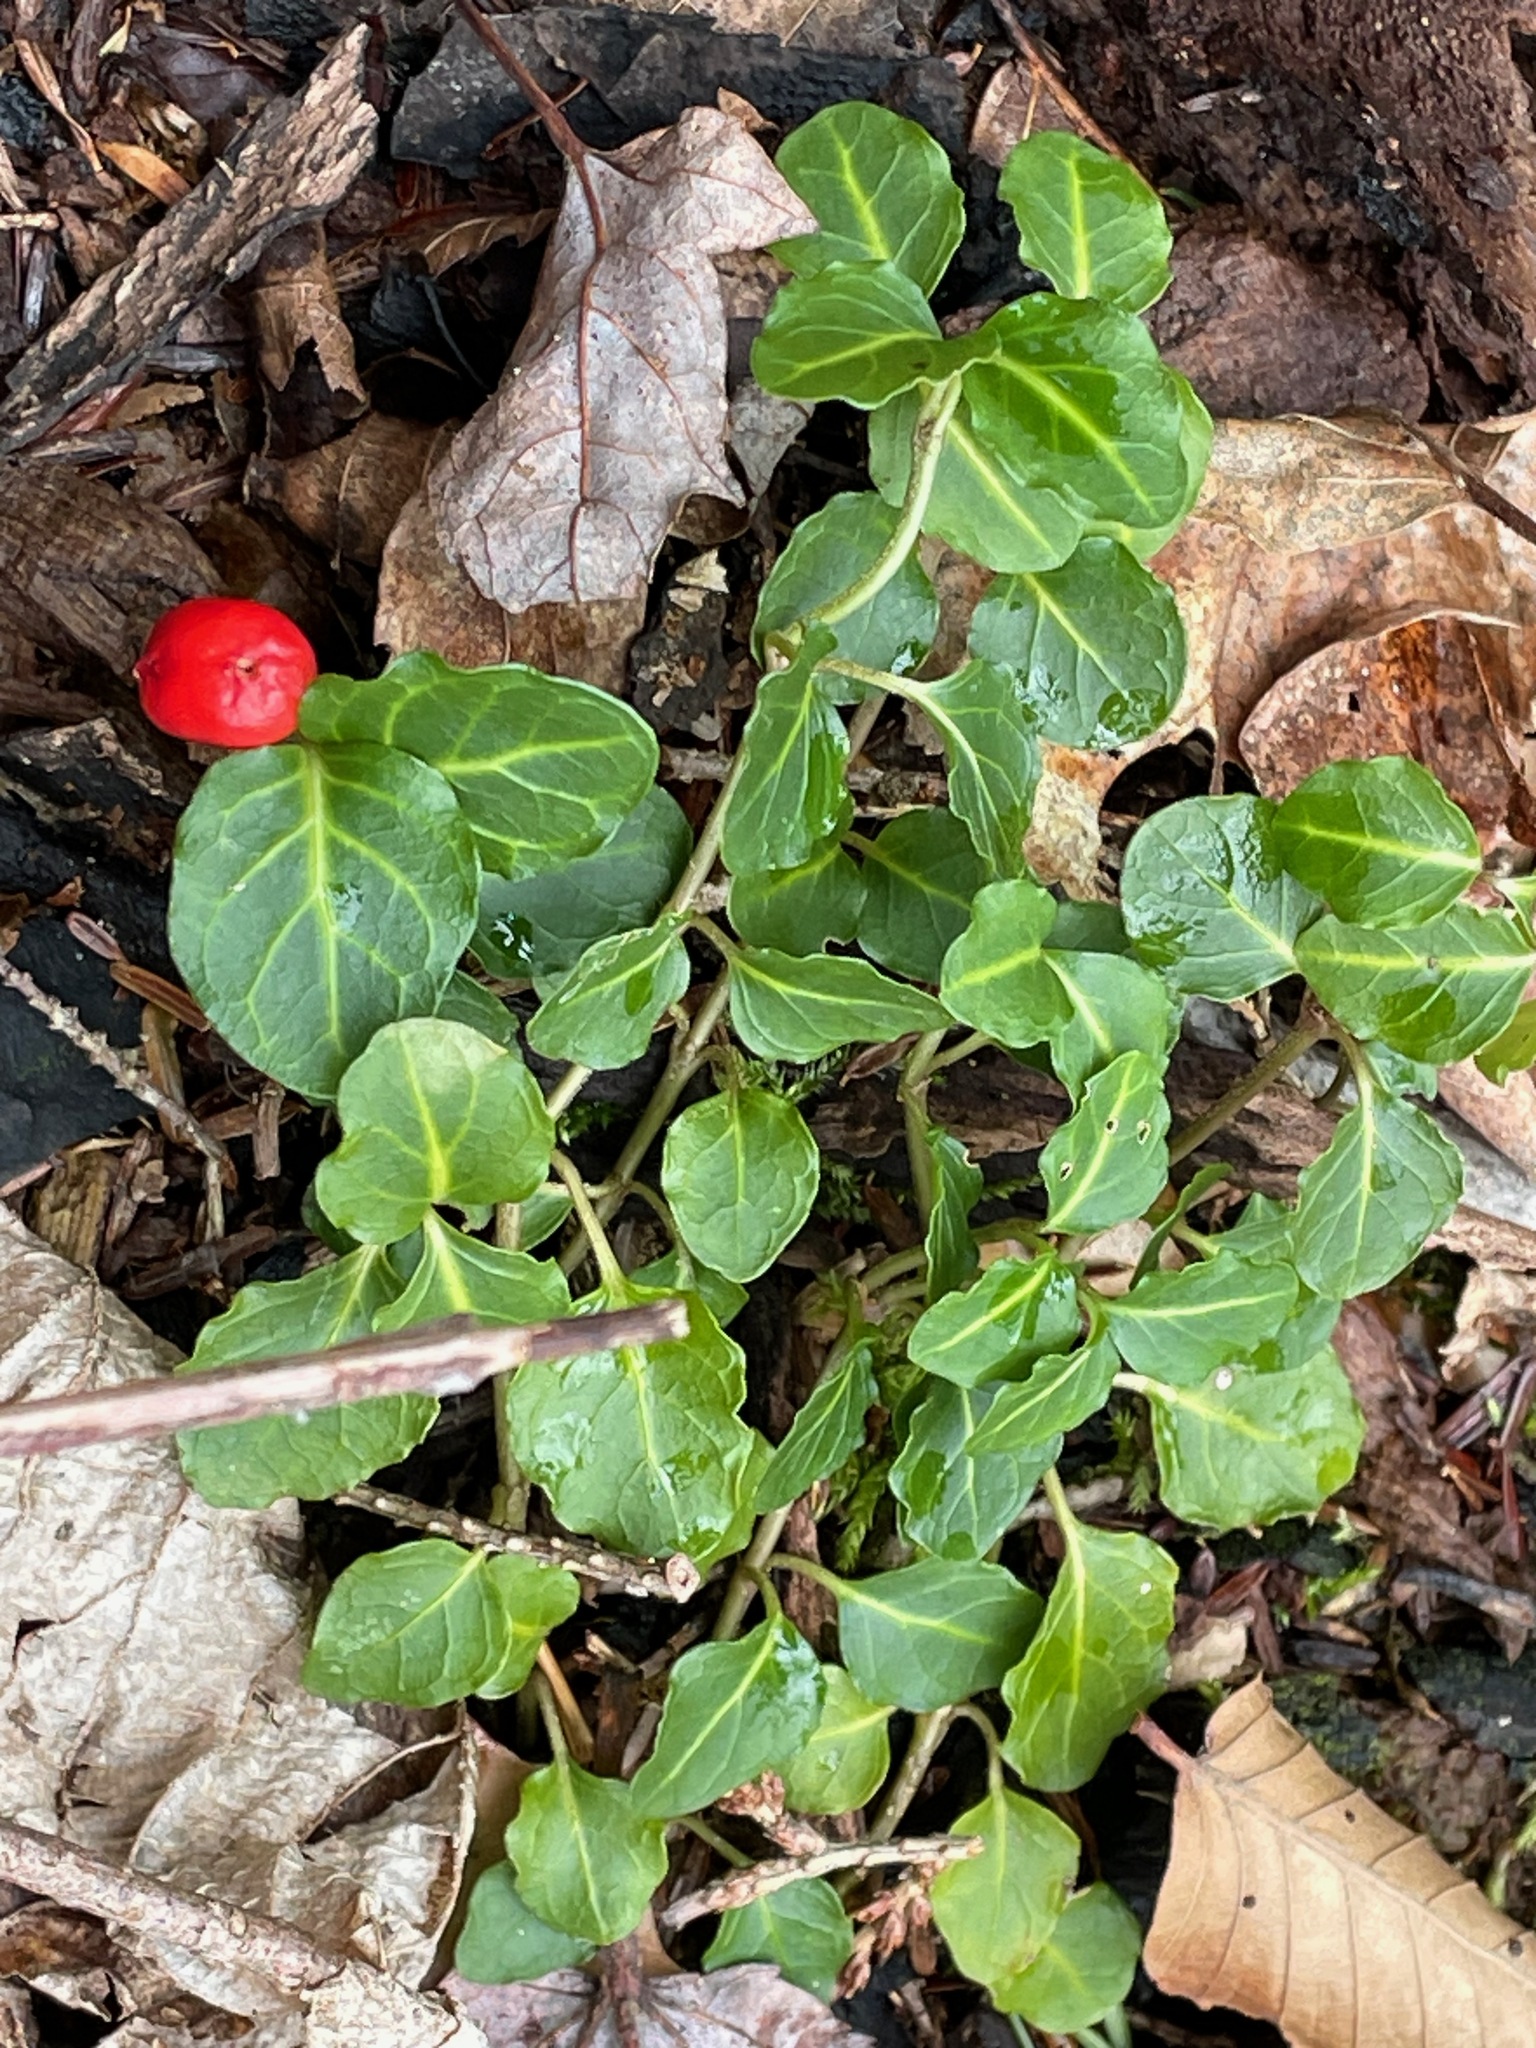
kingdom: Plantae
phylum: Tracheophyta
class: Magnoliopsida
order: Gentianales
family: Rubiaceae
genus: Mitchella
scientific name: Mitchella repens
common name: Partridge-berry
